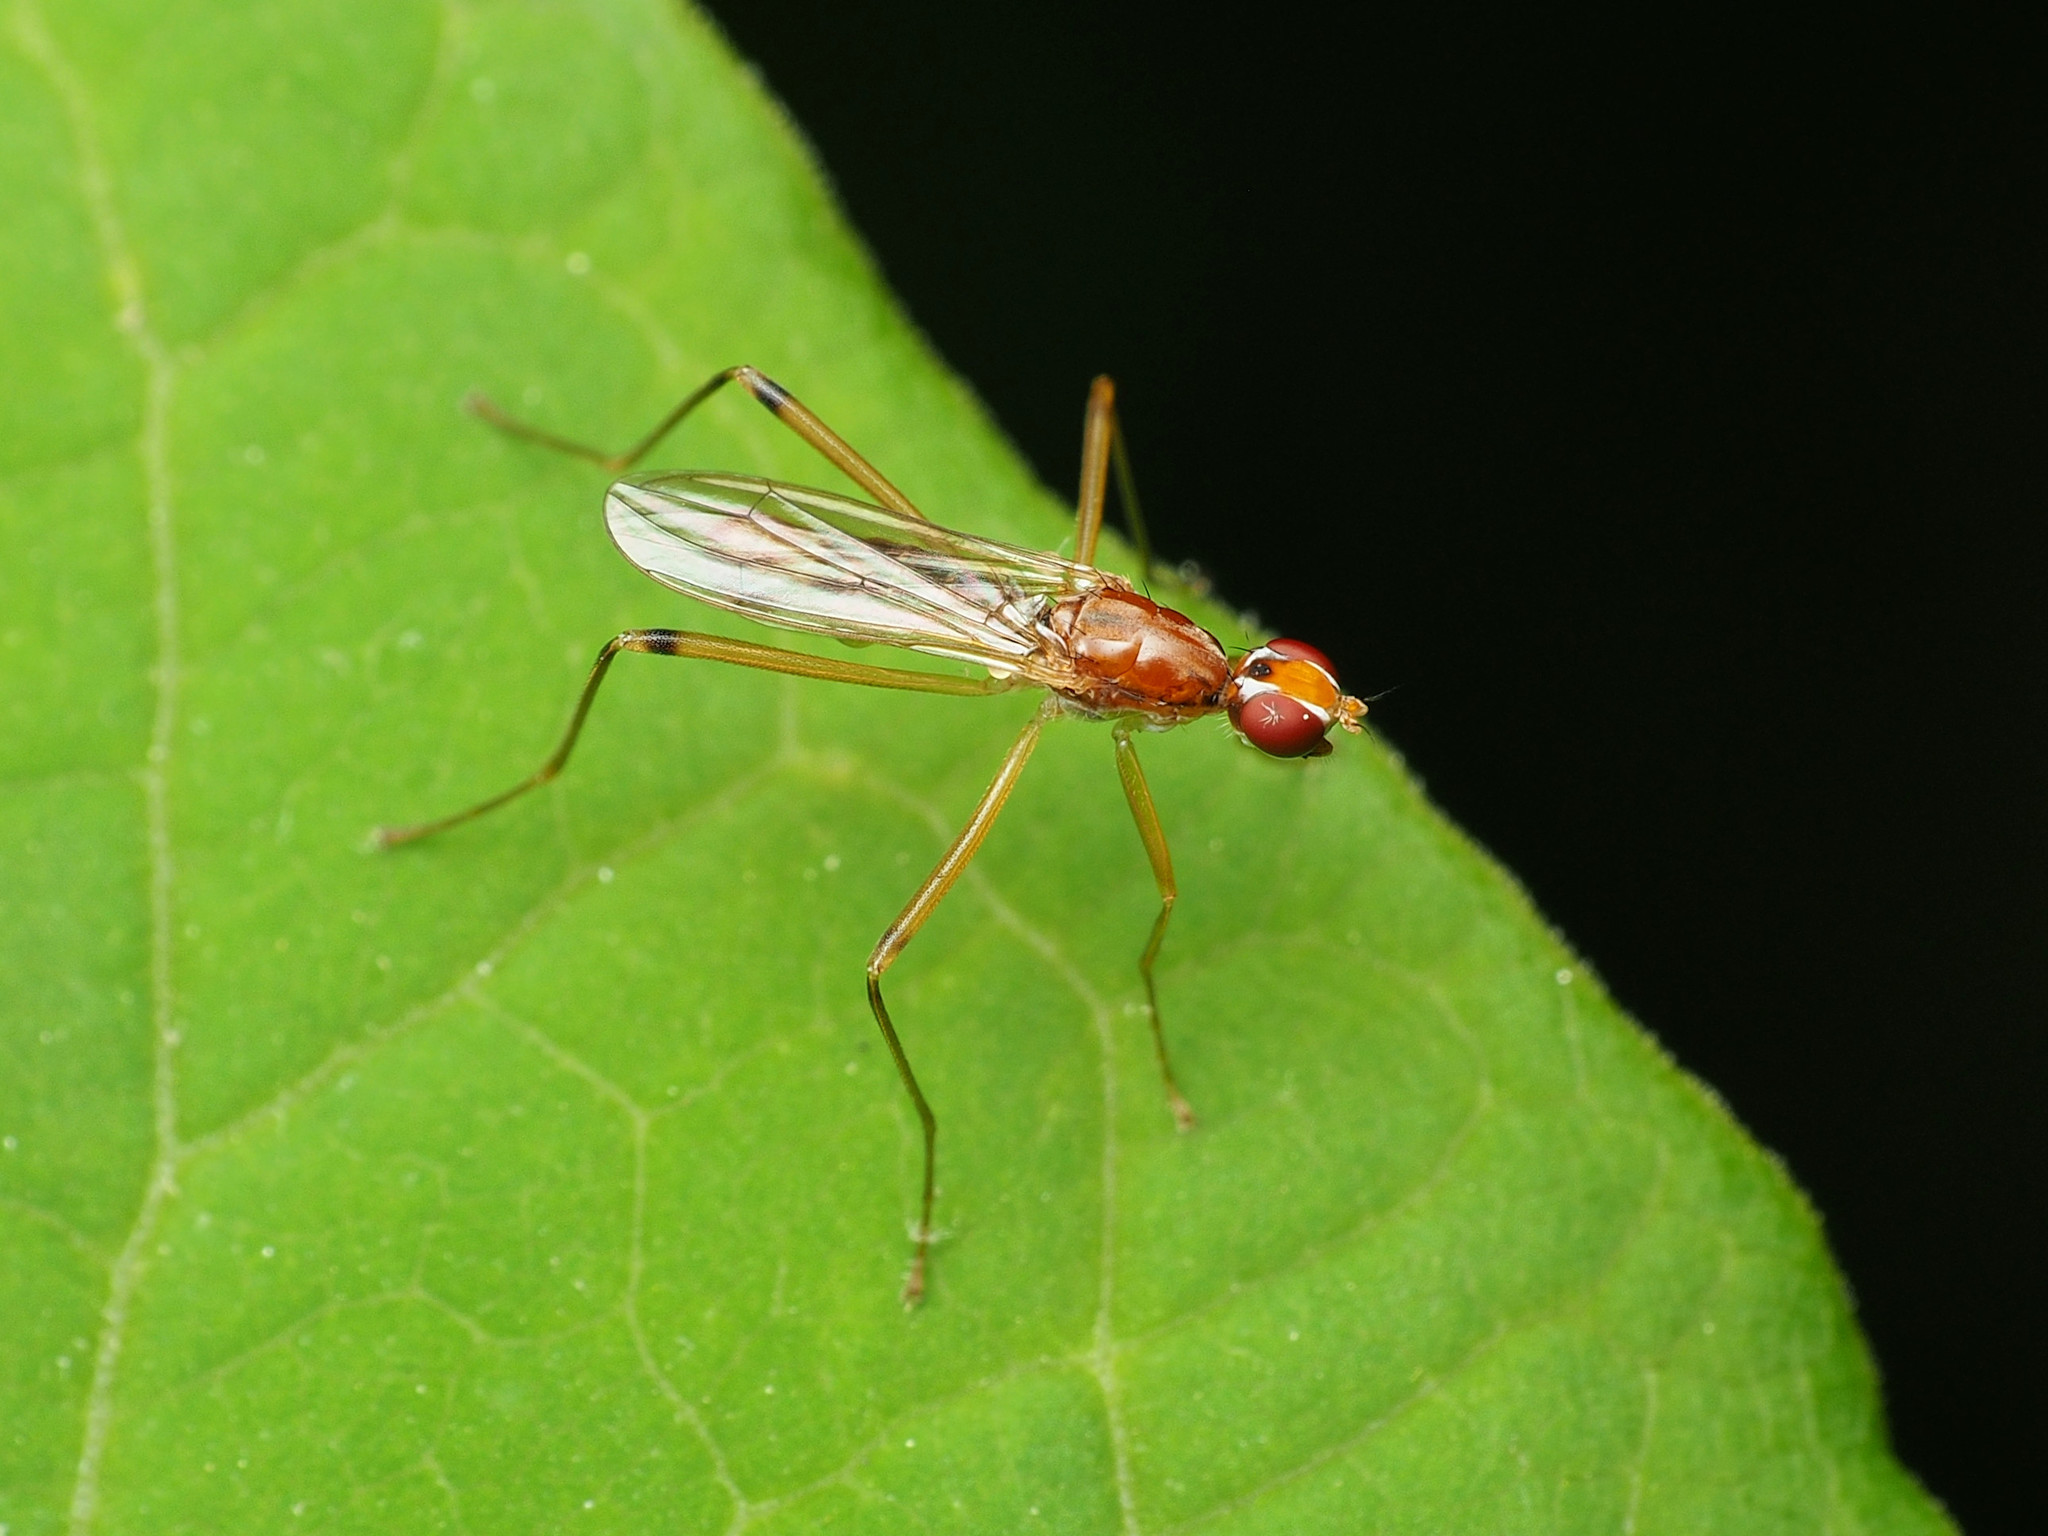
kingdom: Animalia
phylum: Arthropoda
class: Insecta
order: Diptera
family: Micropezidae
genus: Compsobata
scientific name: Compsobata univitta
